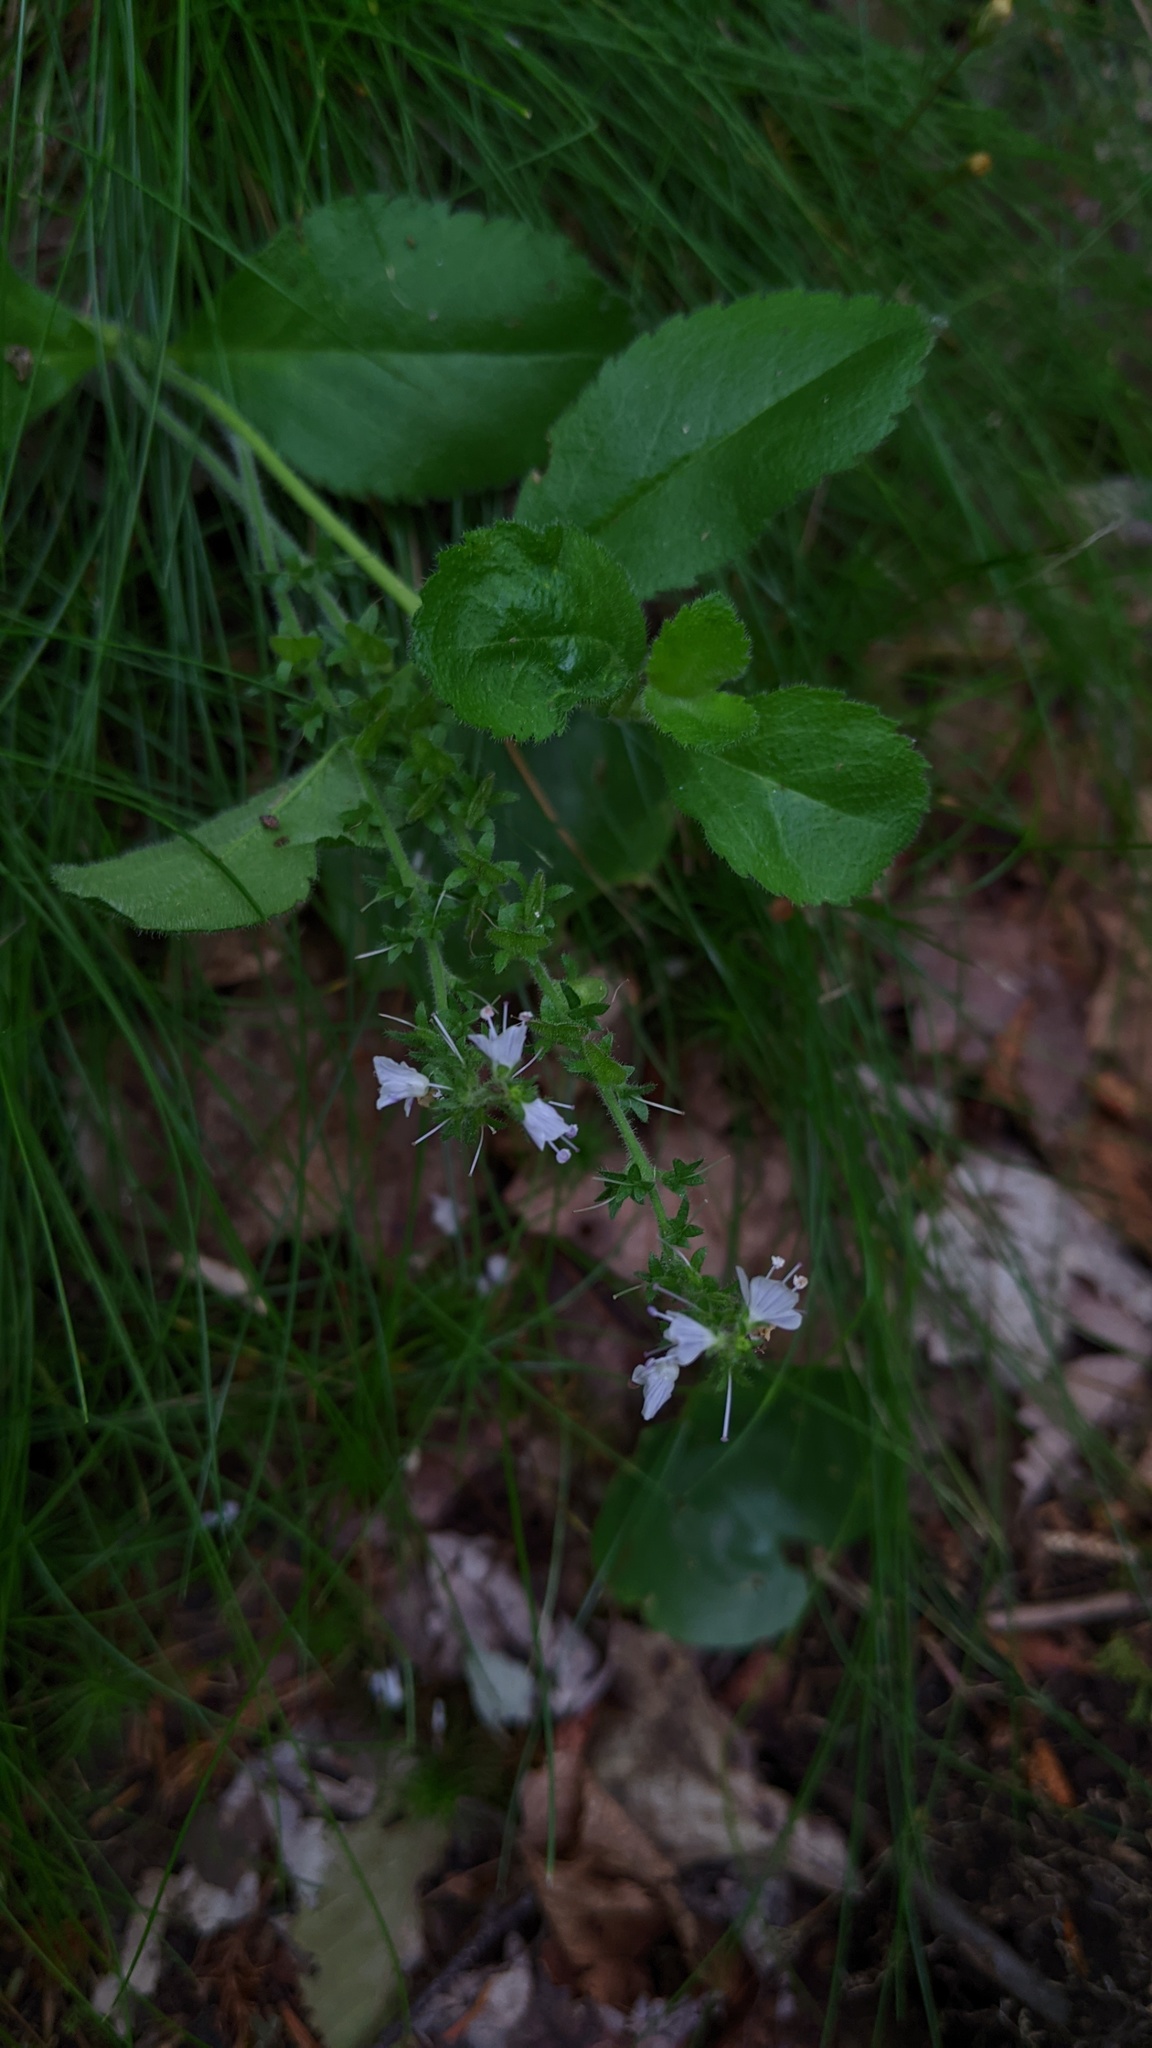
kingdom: Plantae
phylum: Tracheophyta
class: Magnoliopsida
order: Lamiales
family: Plantaginaceae
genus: Veronica
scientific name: Veronica officinalis
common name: Common speedwell
